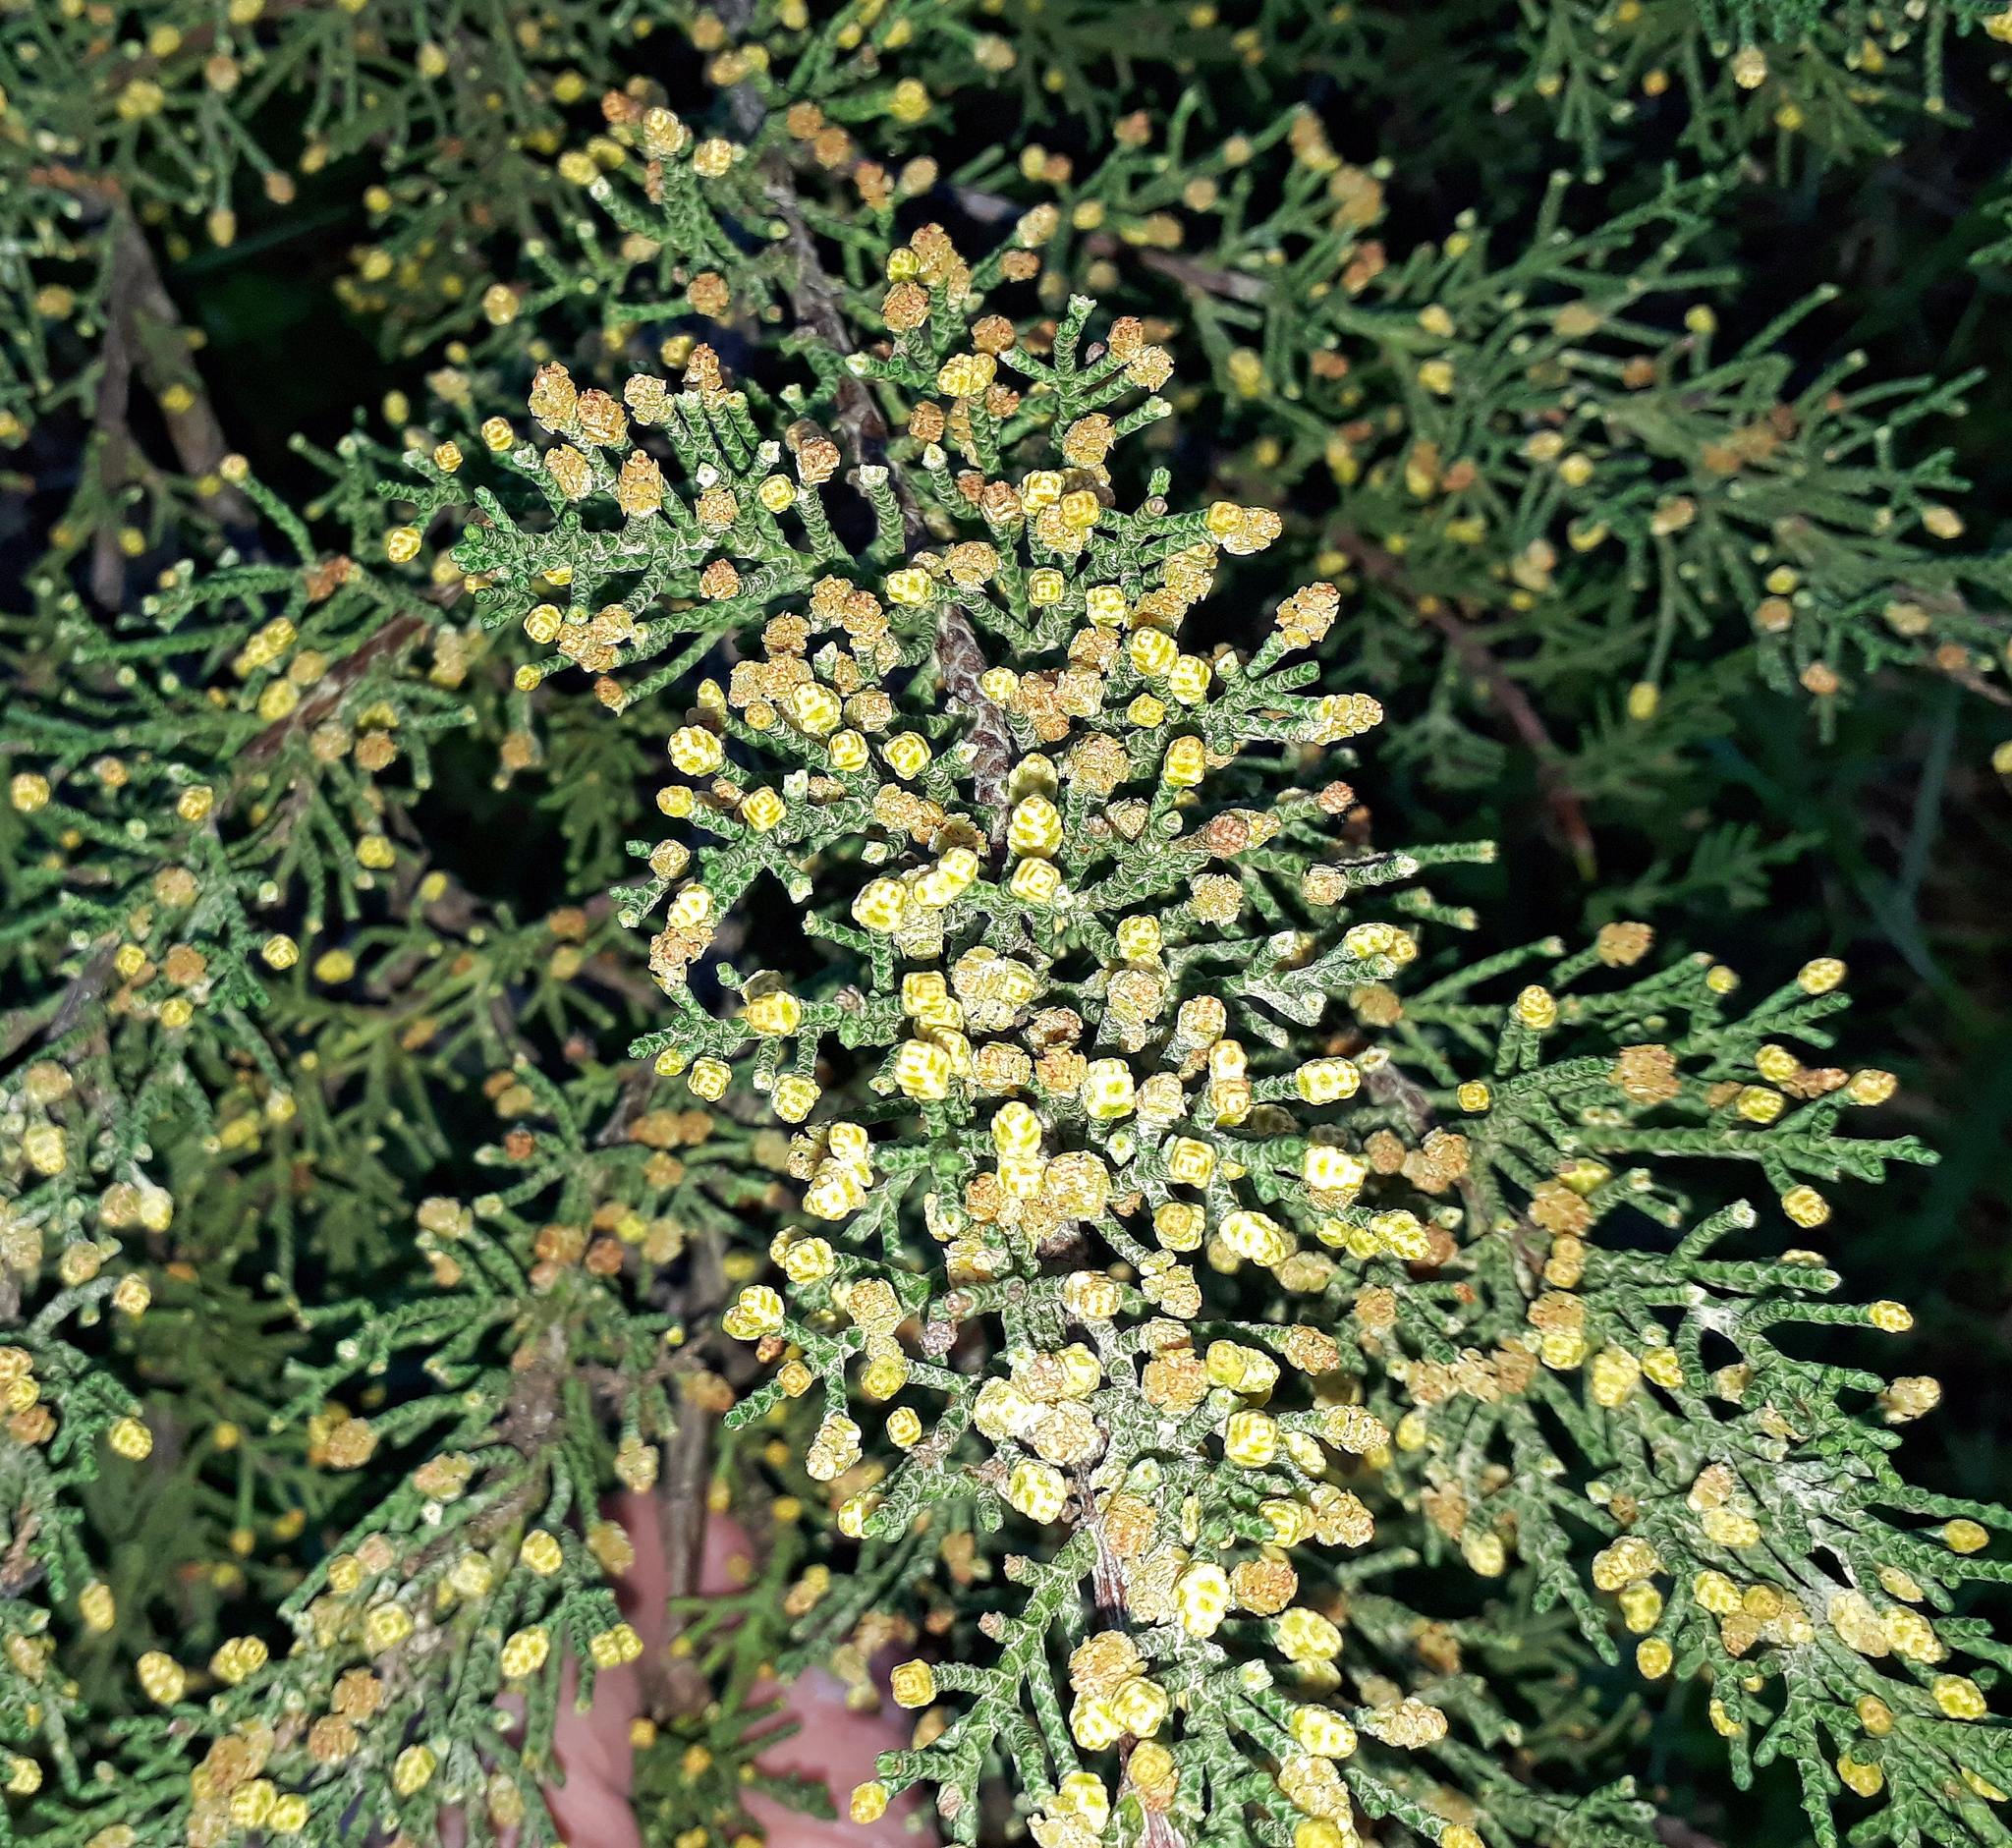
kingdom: Plantae
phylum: Tracheophyta
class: Pinopsida
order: Pinales
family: Cupressaceae
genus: Cupressus
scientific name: Cupressus macrocarpa
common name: Monterey cypress
